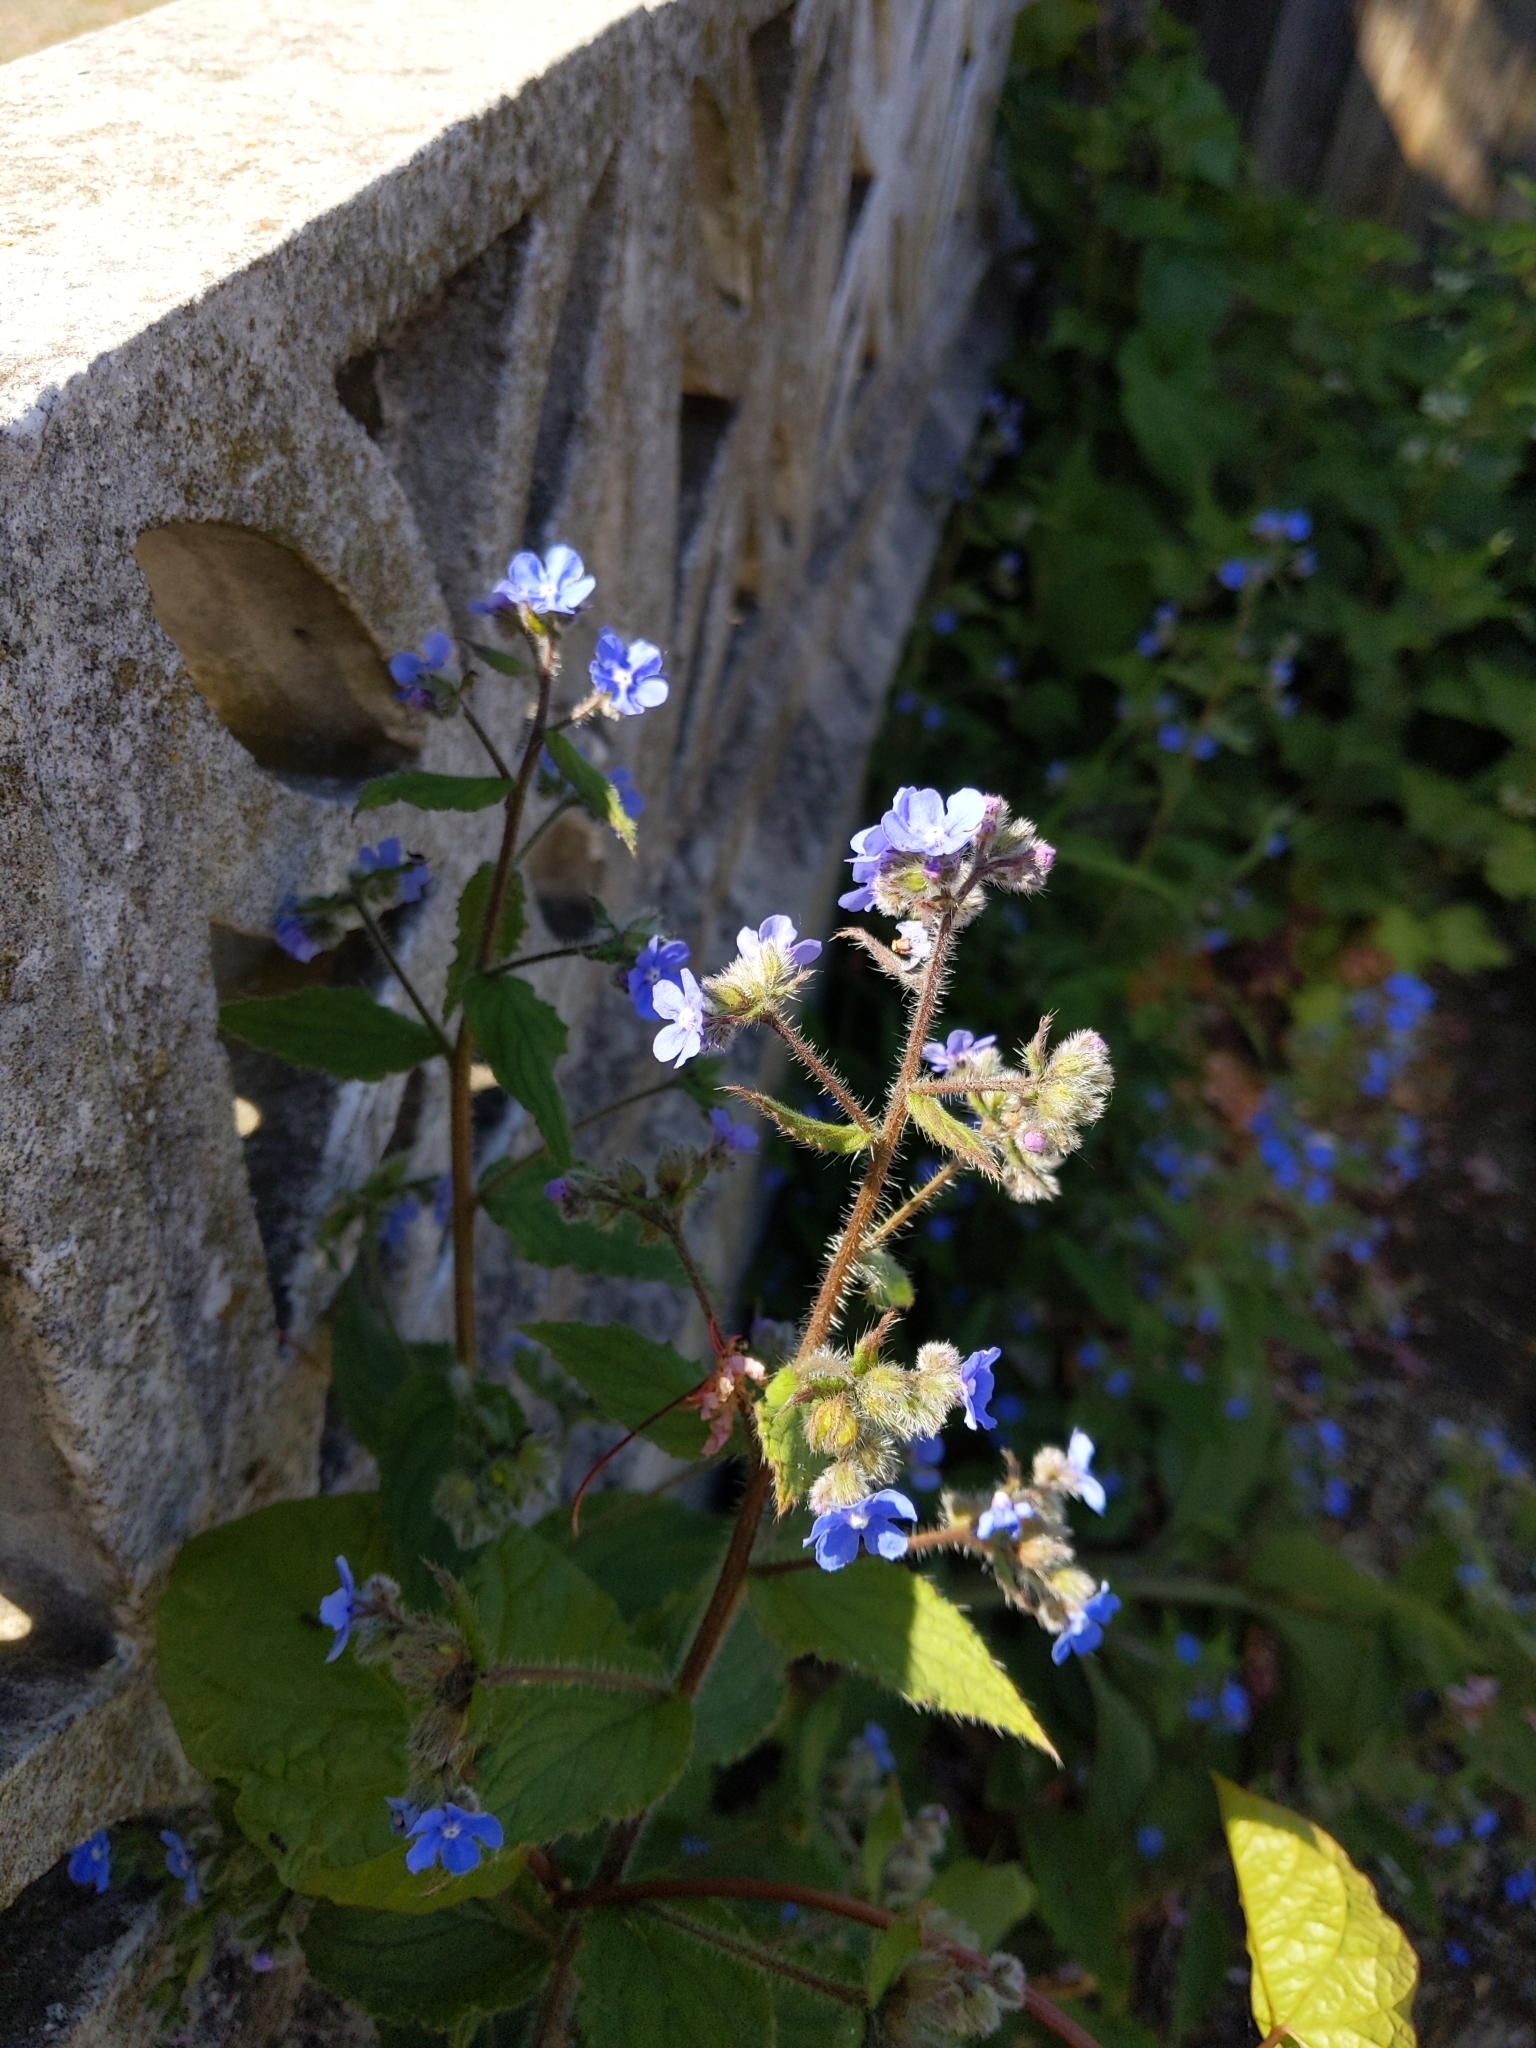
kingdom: Plantae
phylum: Tracheophyta
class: Magnoliopsida
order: Boraginales
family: Boraginaceae
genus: Pentaglottis
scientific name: Pentaglottis sempervirens
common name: Green alkanet
